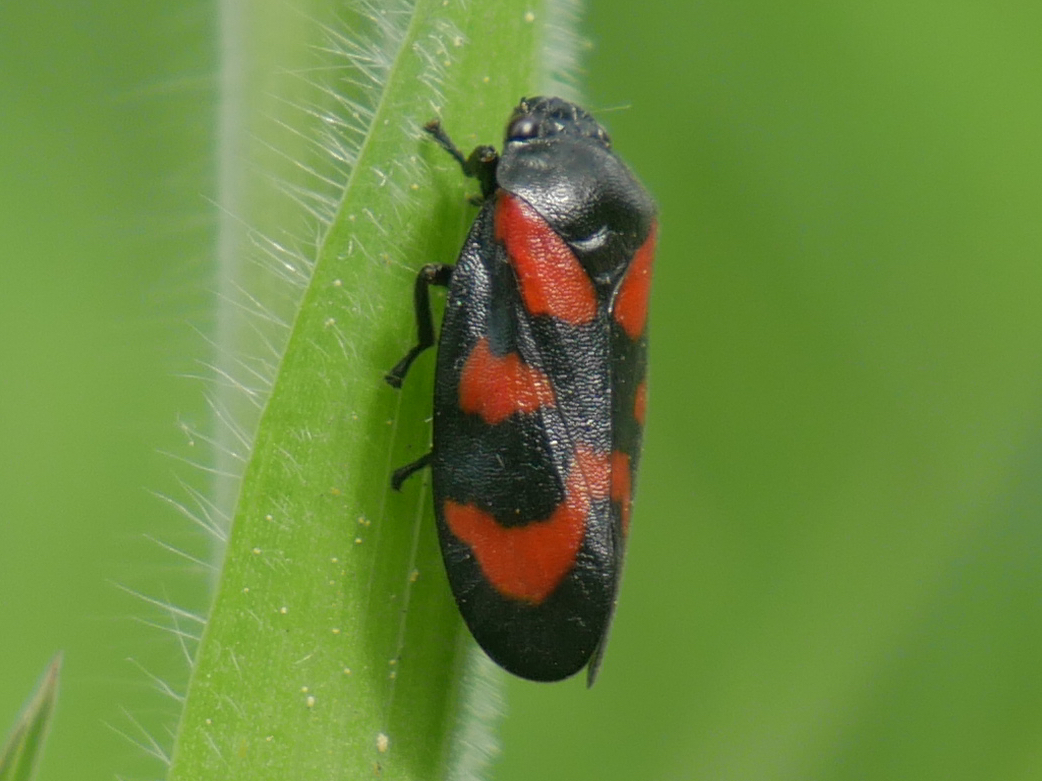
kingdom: Animalia
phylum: Arthropoda
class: Insecta
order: Hemiptera
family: Cercopidae
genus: Cercopis
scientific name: Cercopis vulnerata
